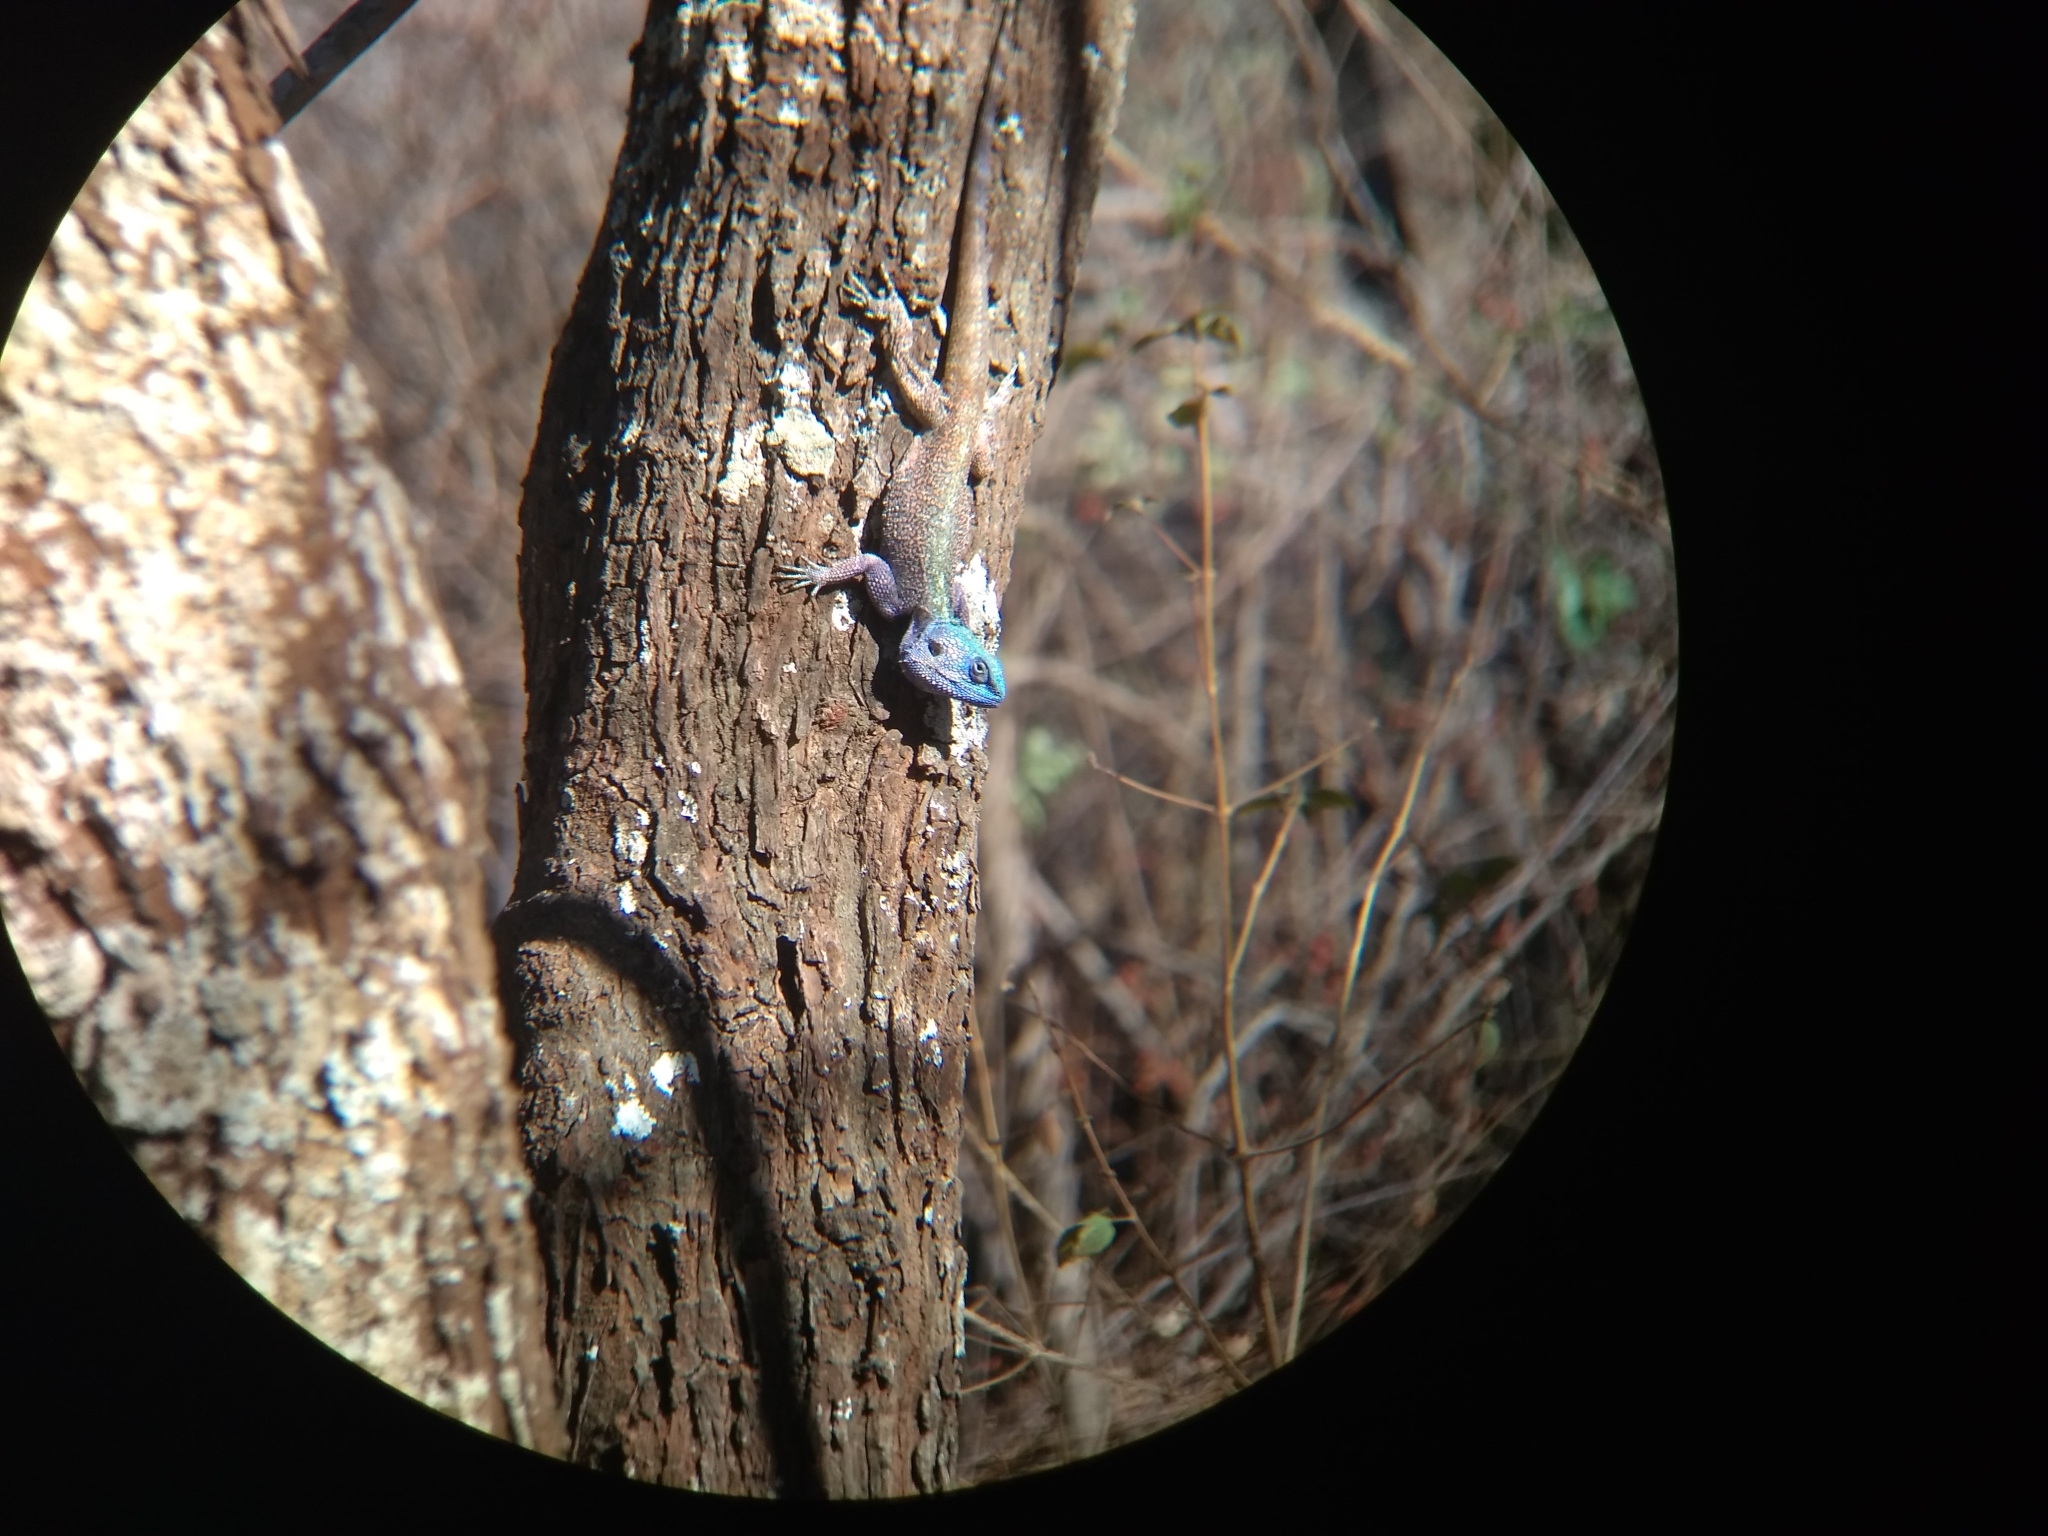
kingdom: Animalia
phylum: Chordata
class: Squamata
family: Agamidae
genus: Acanthocercus
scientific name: Acanthocercus atricollis
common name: Southern tree agama
